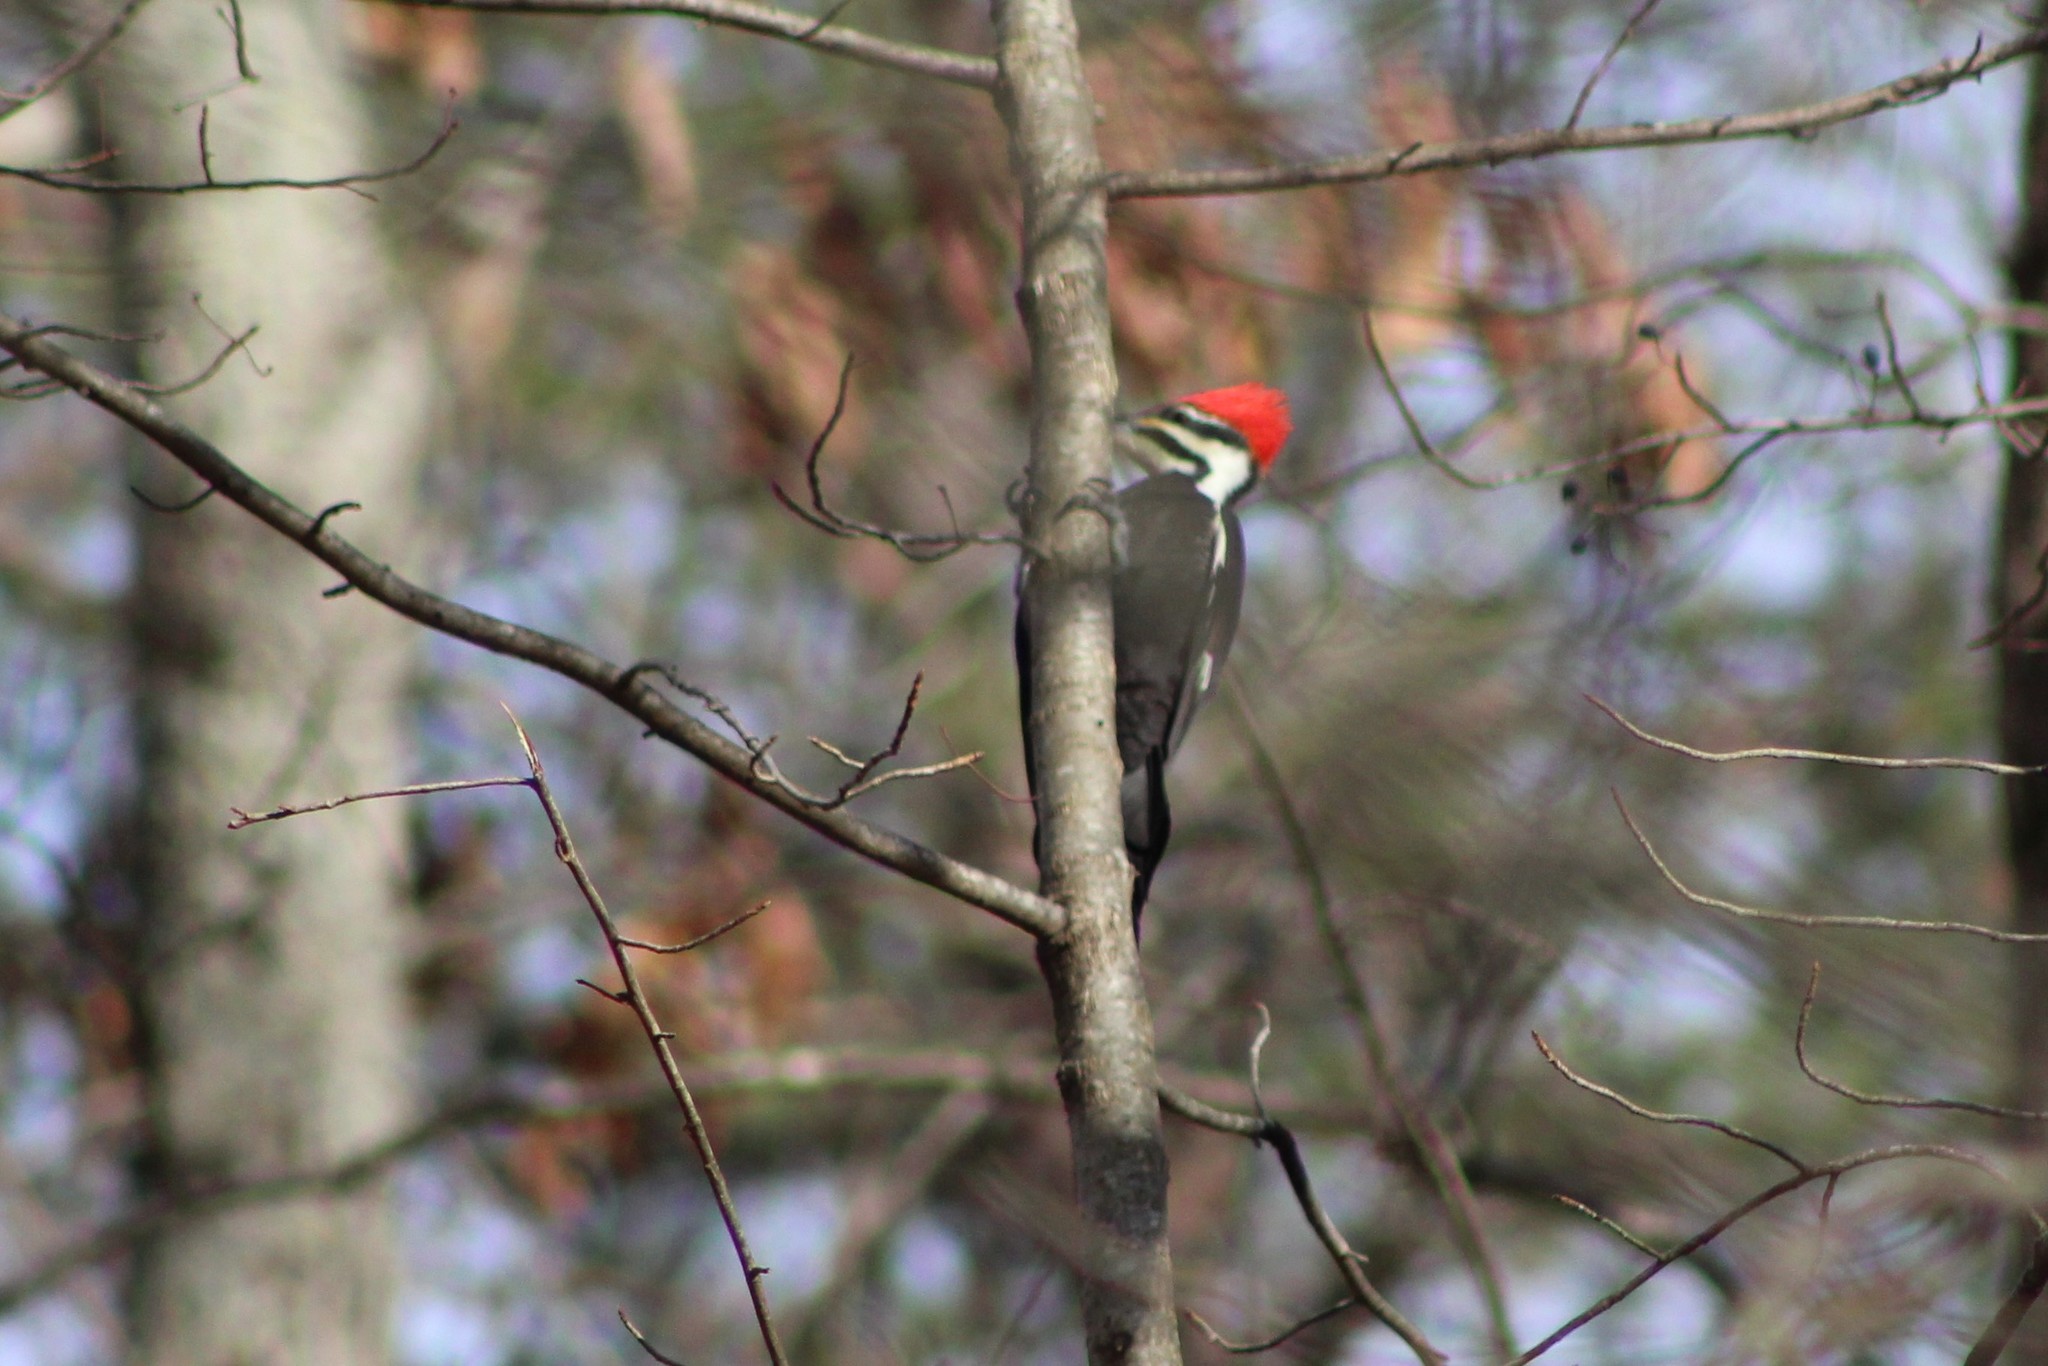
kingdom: Animalia
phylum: Chordata
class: Aves
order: Piciformes
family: Picidae
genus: Dryocopus
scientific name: Dryocopus pileatus
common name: Pileated woodpecker
